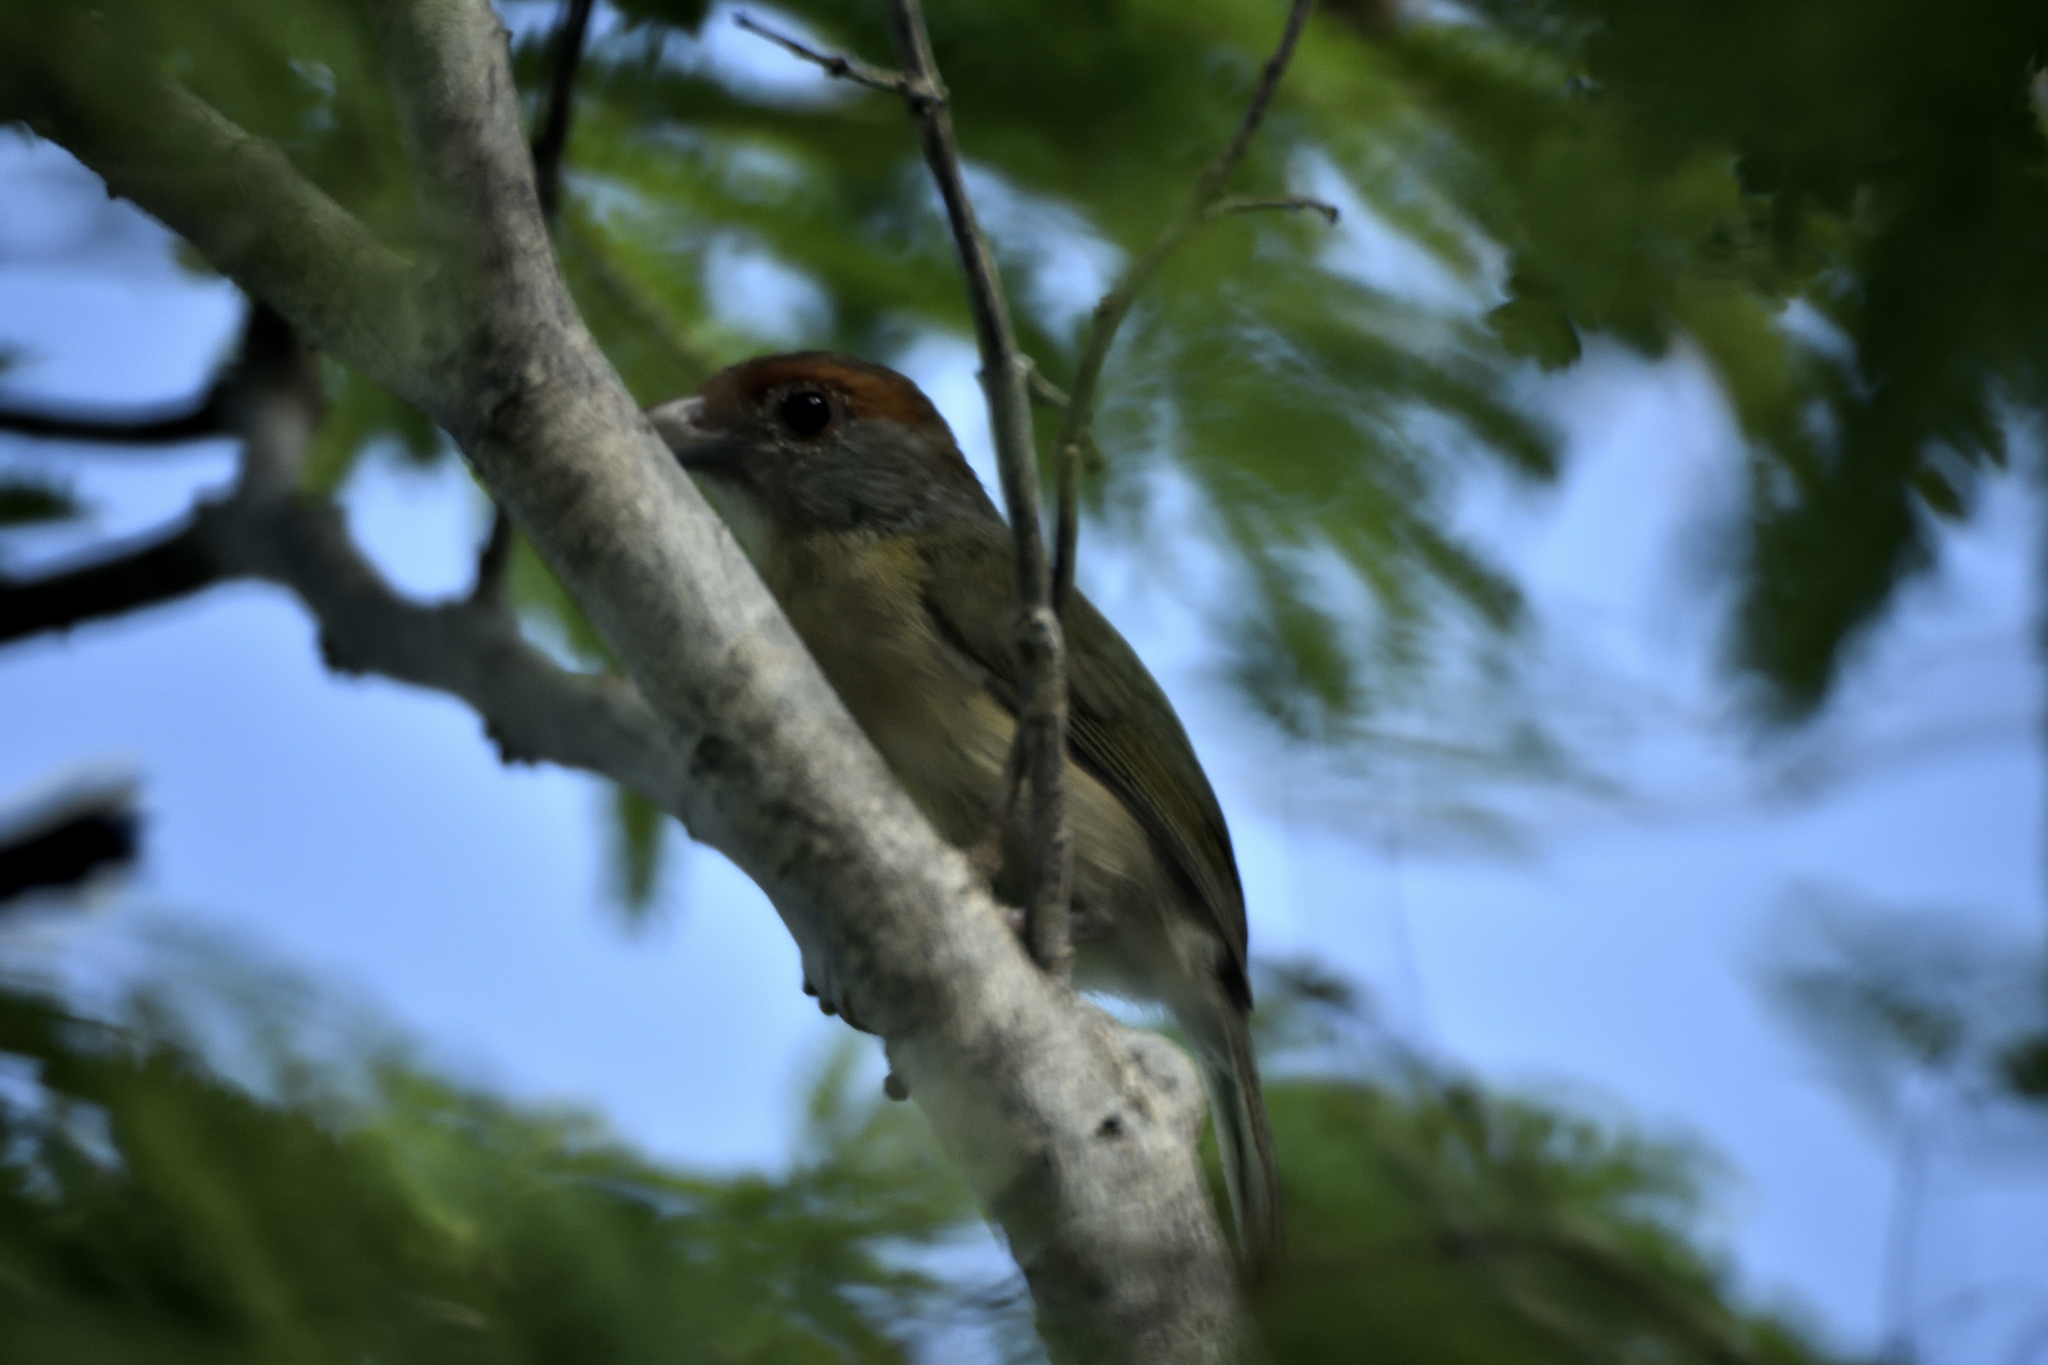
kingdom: Animalia
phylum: Chordata
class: Aves
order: Passeriformes
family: Vireonidae
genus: Cyclarhis
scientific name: Cyclarhis gujanensis
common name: Rufous-browed peppershrike
